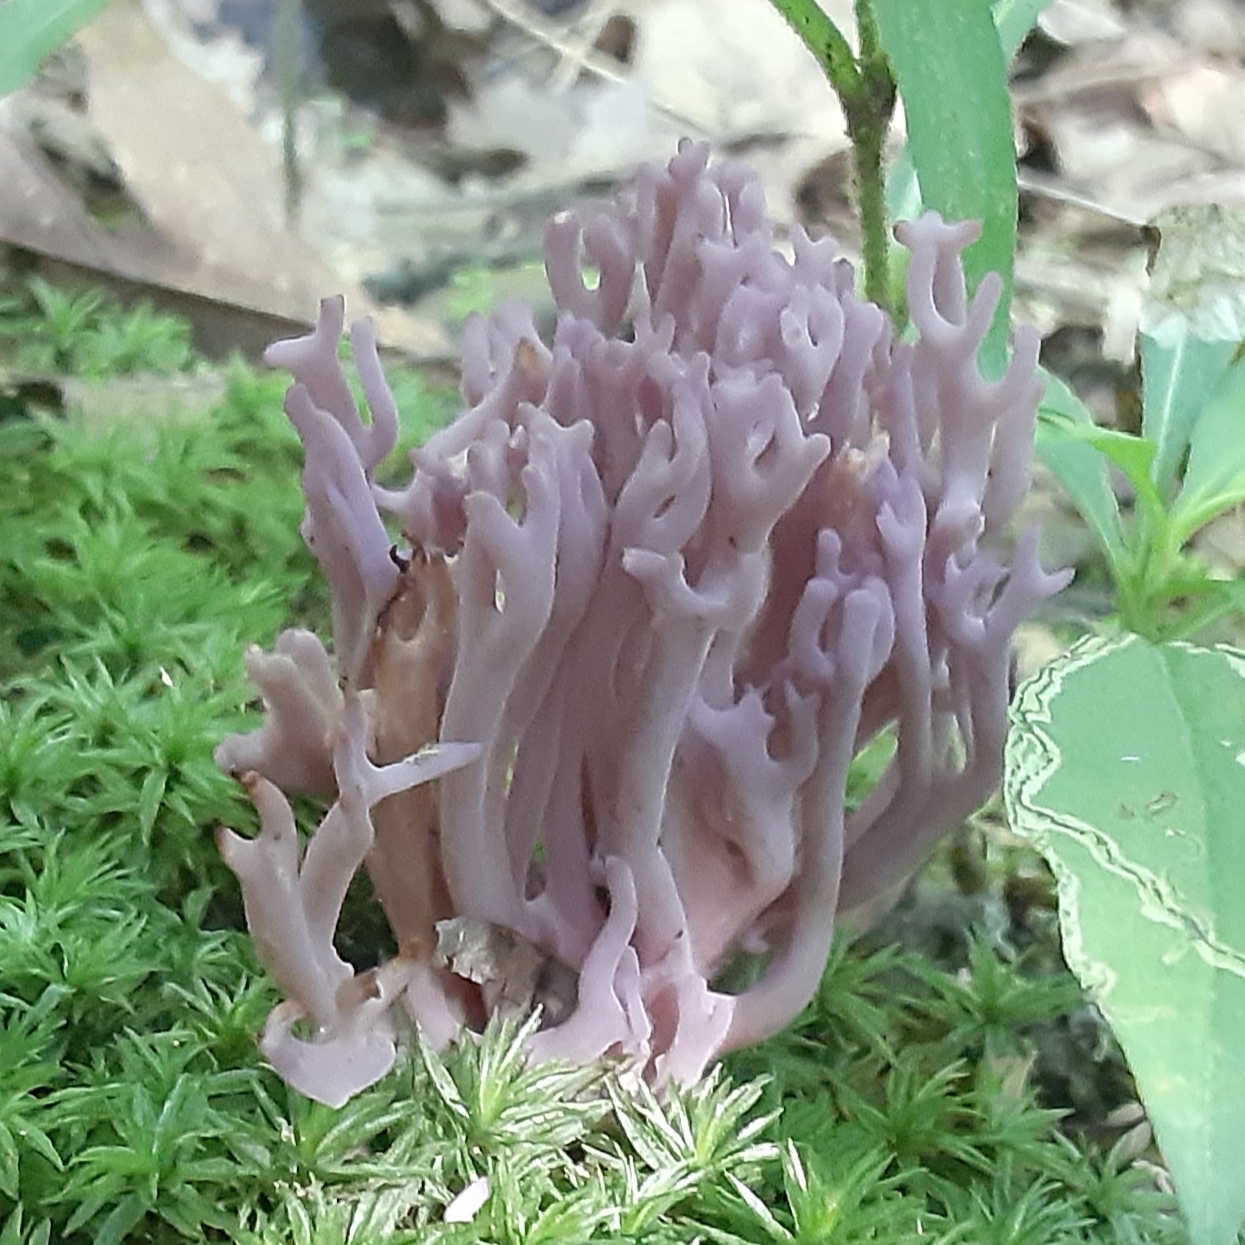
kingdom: Fungi
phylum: Basidiomycota
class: Agaricomycetes
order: Agaricales
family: Clavariaceae
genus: Clavaria
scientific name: Clavaria zollingeri
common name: Violet coral
